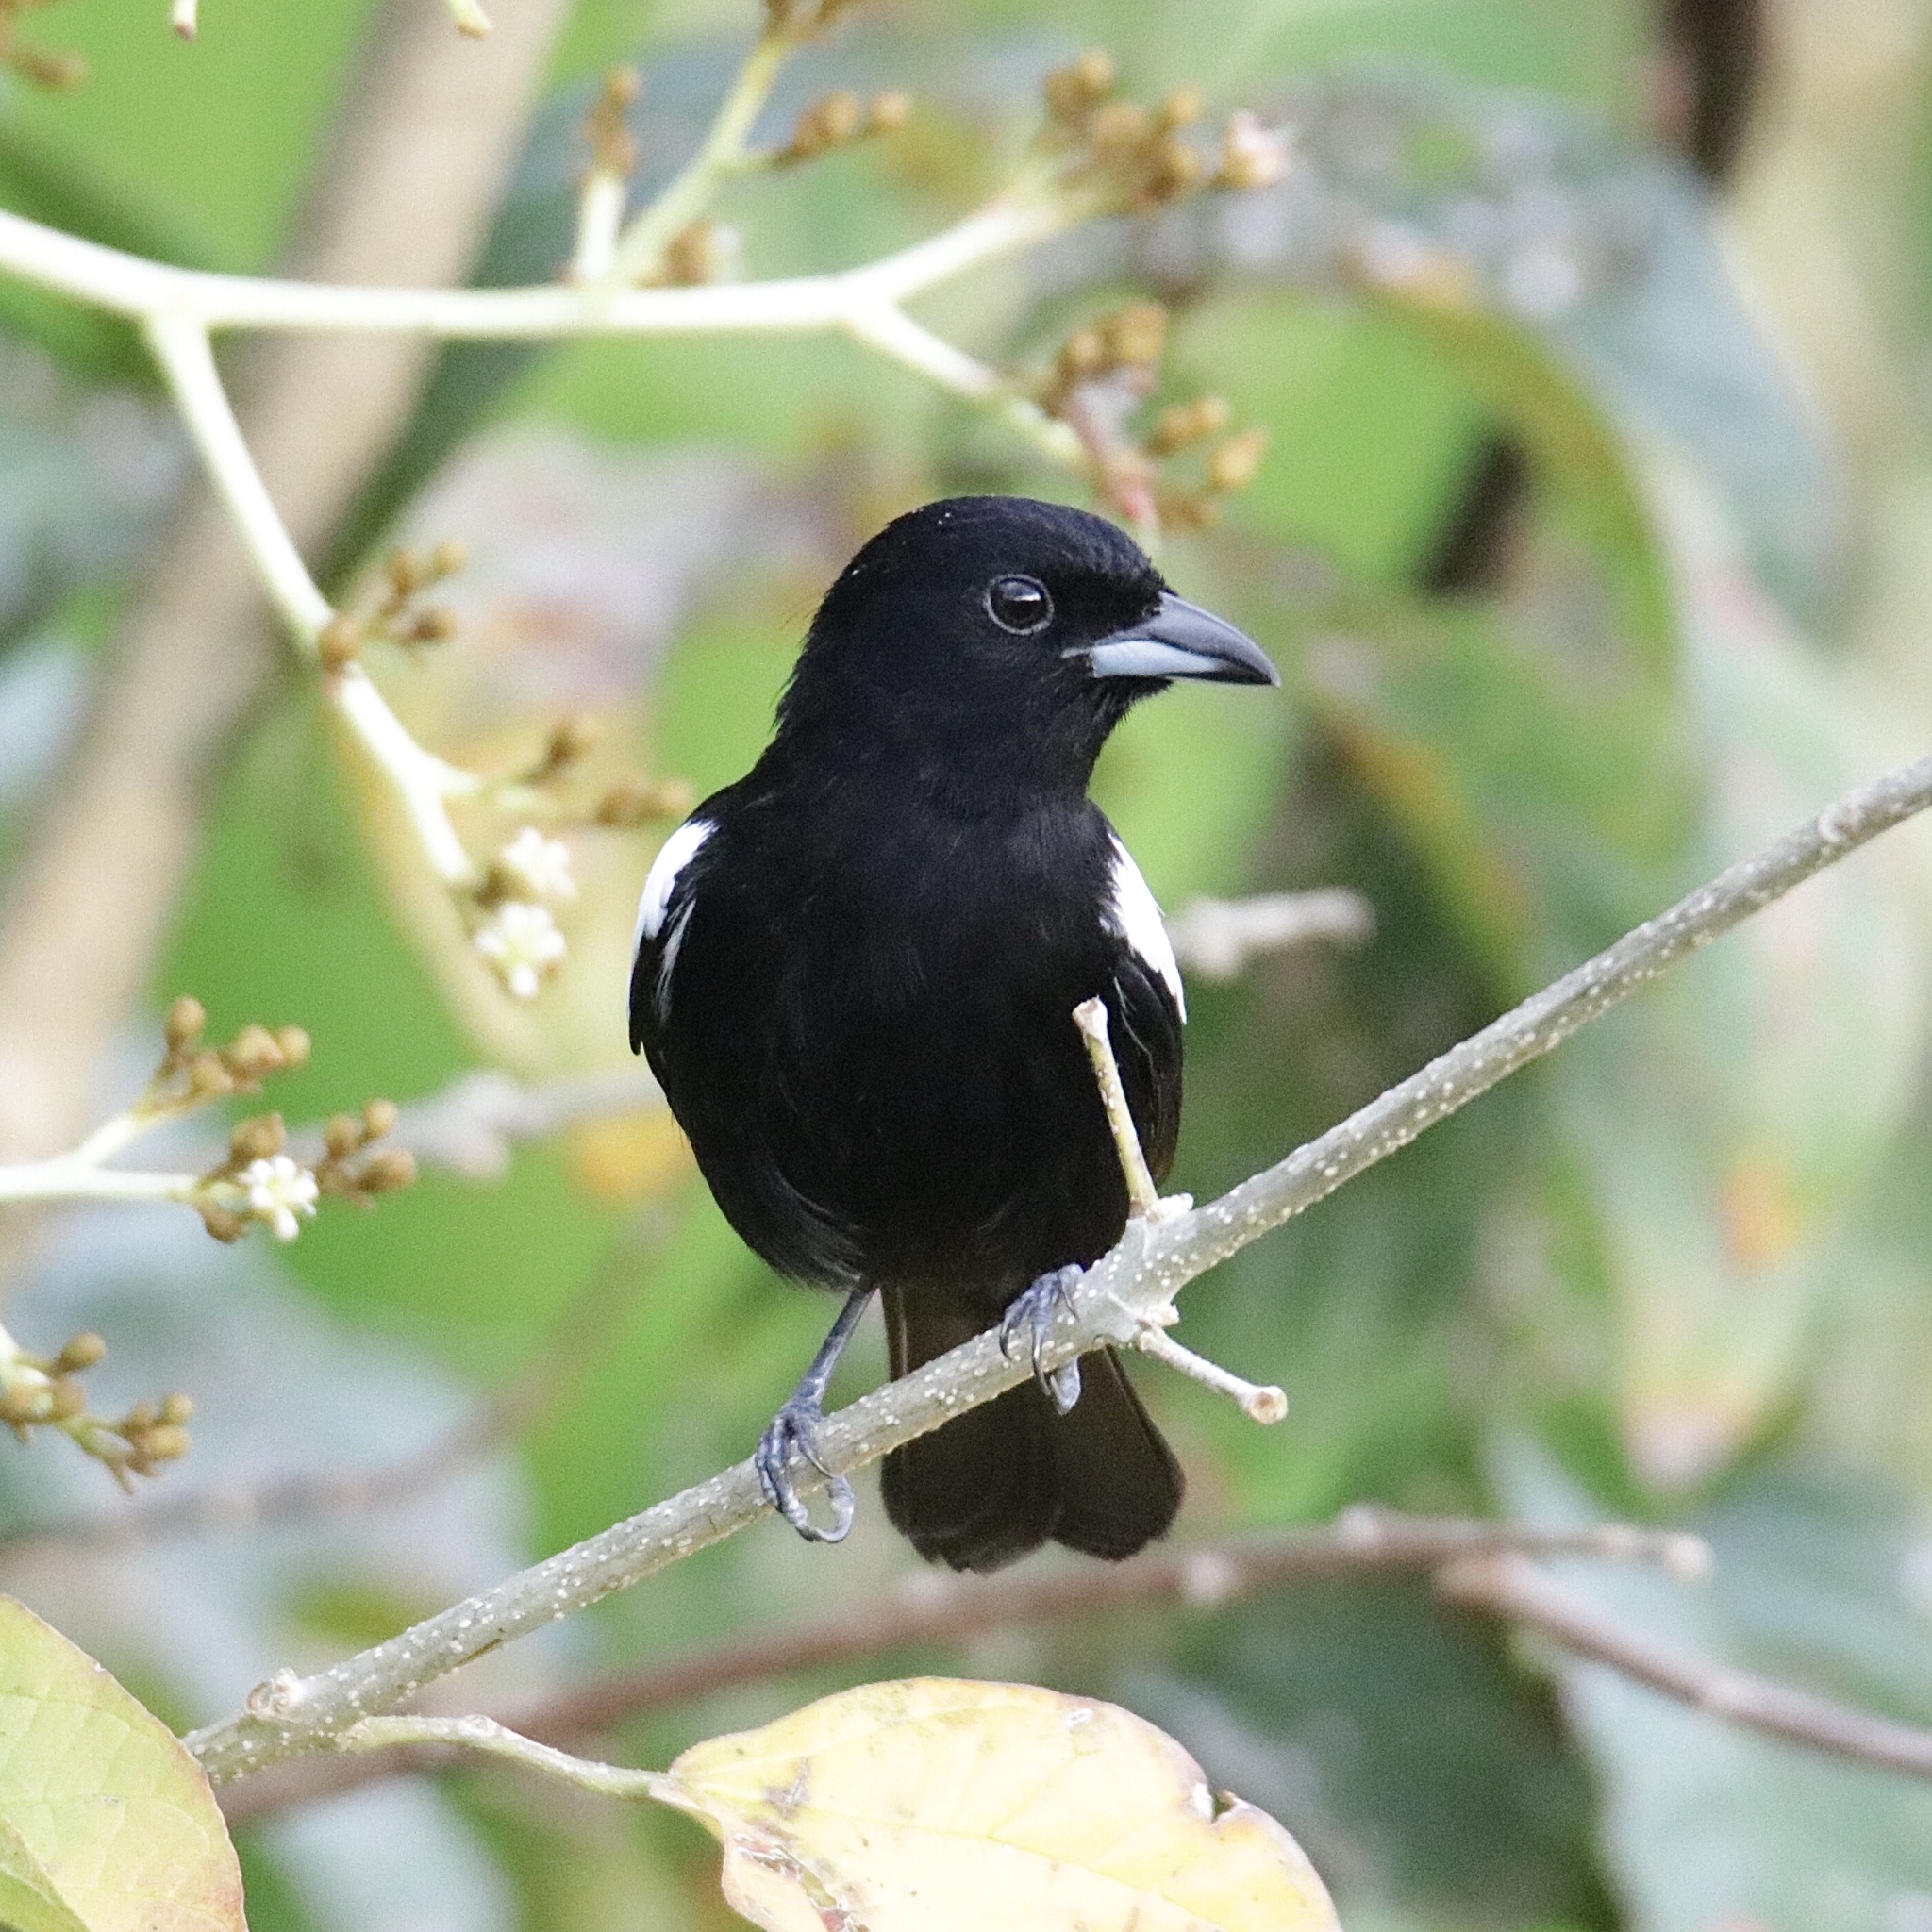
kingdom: Animalia
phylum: Chordata
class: Aves
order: Passeriformes
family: Thraupidae
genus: Loriotus
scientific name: Loriotus luctuosus
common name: White-shouldered tanager
